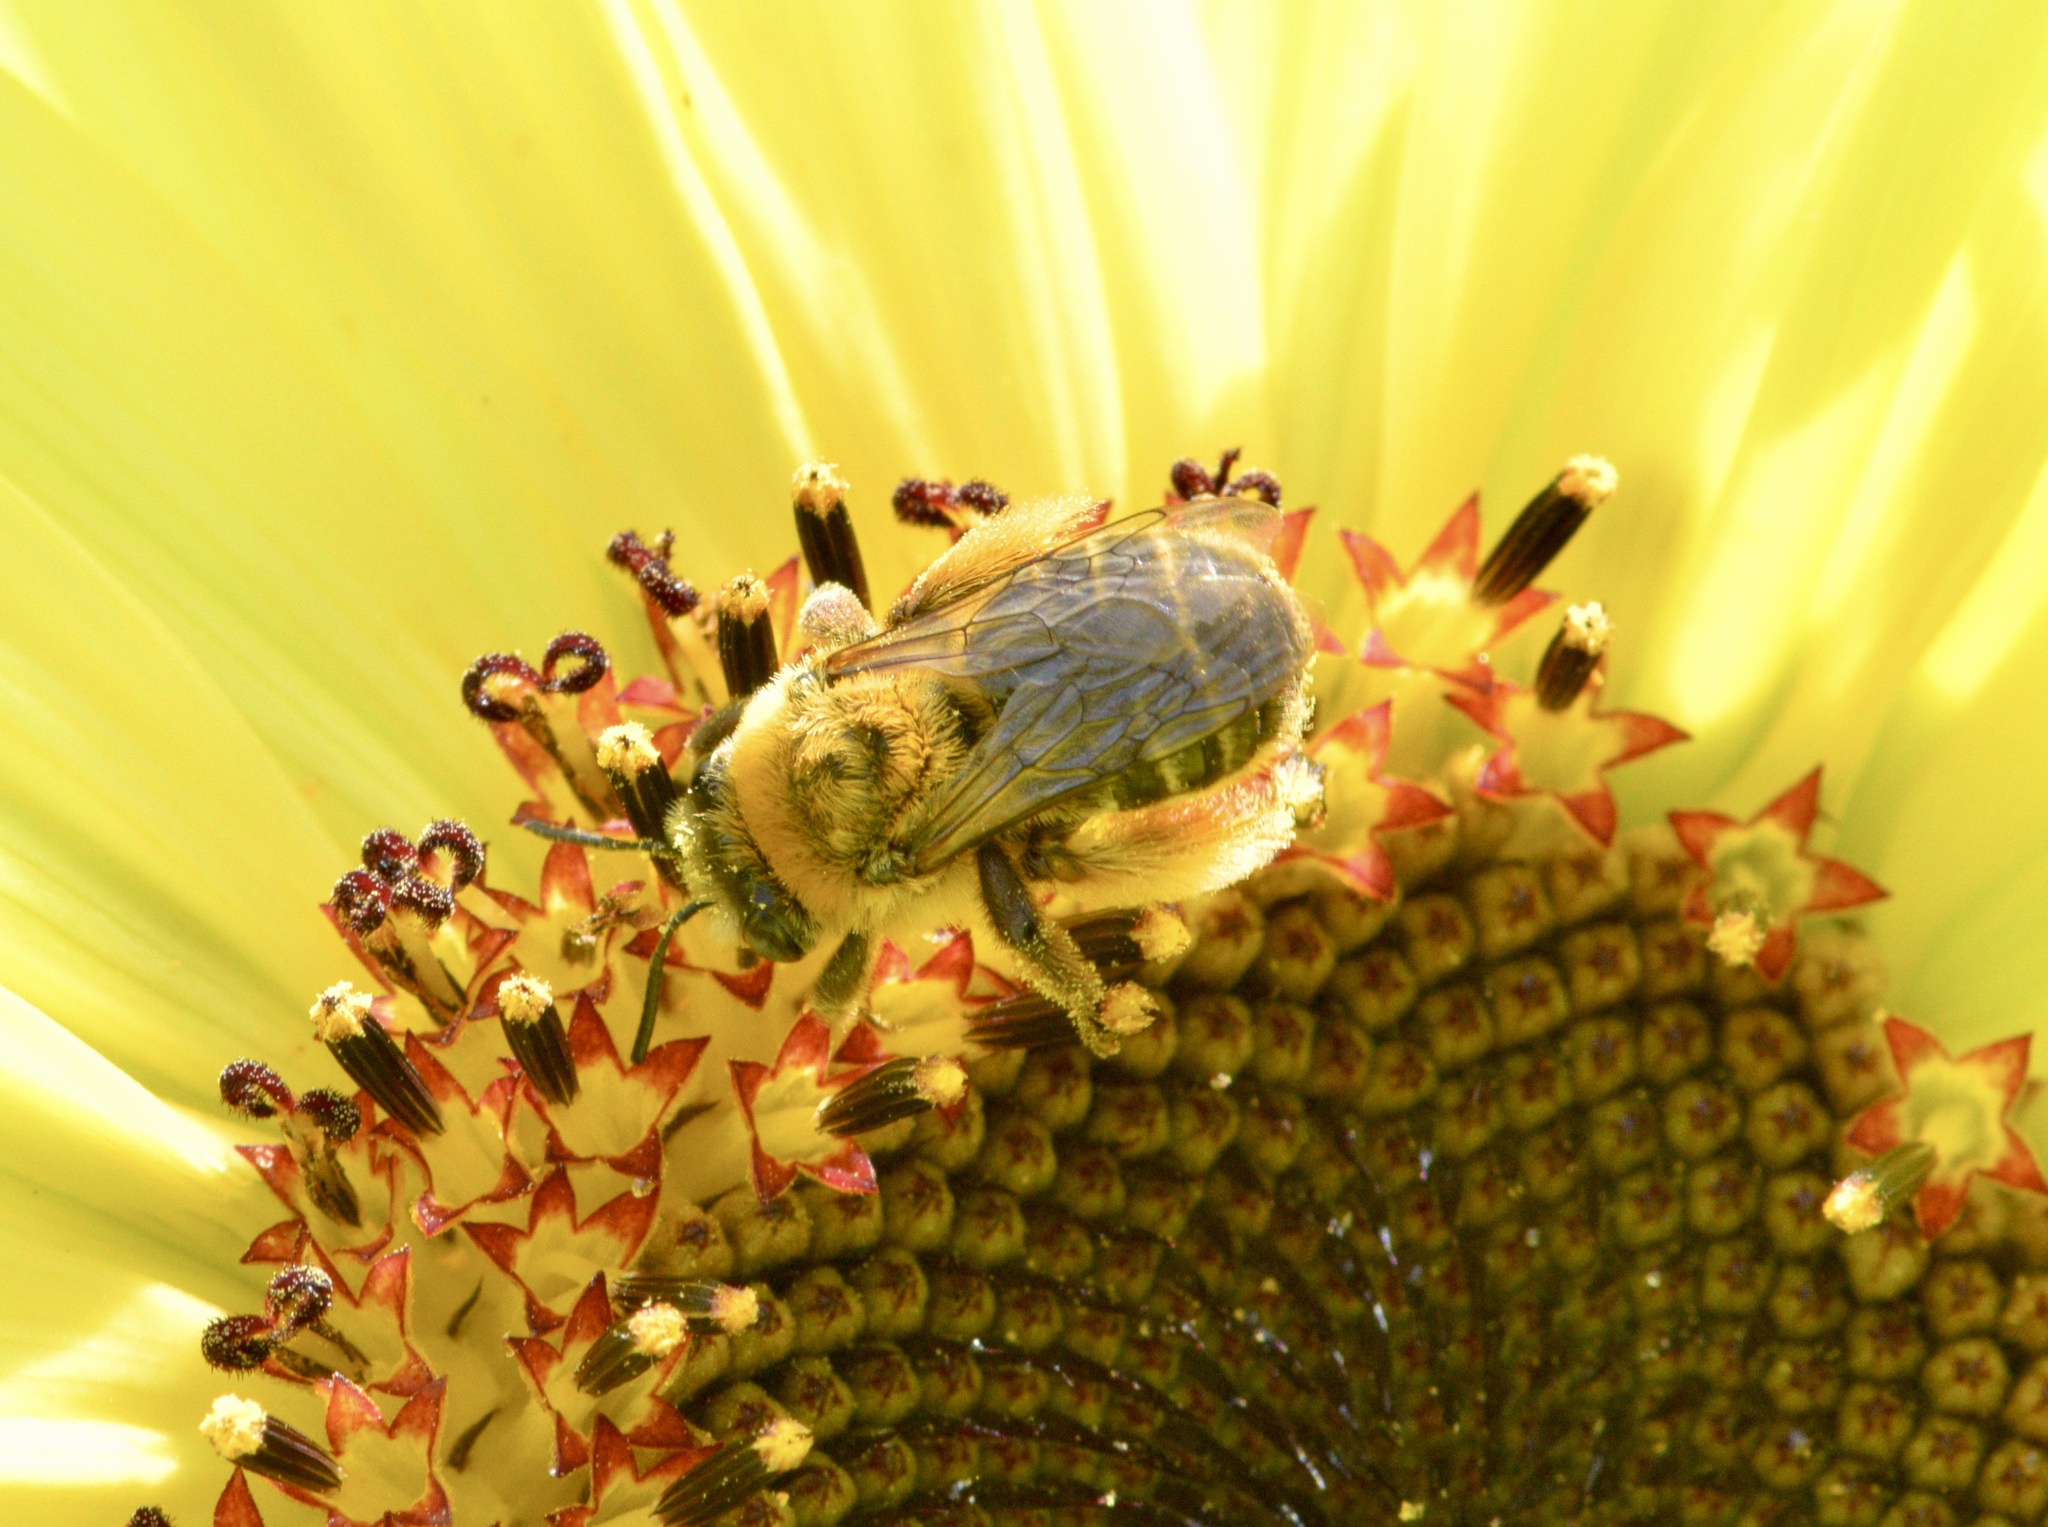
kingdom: Animalia
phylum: Arthropoda
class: Insecta
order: Hymenoptera
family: Apidae
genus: Melissodes
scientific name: Melissodes trinodis
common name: Dark-veined longhorn
